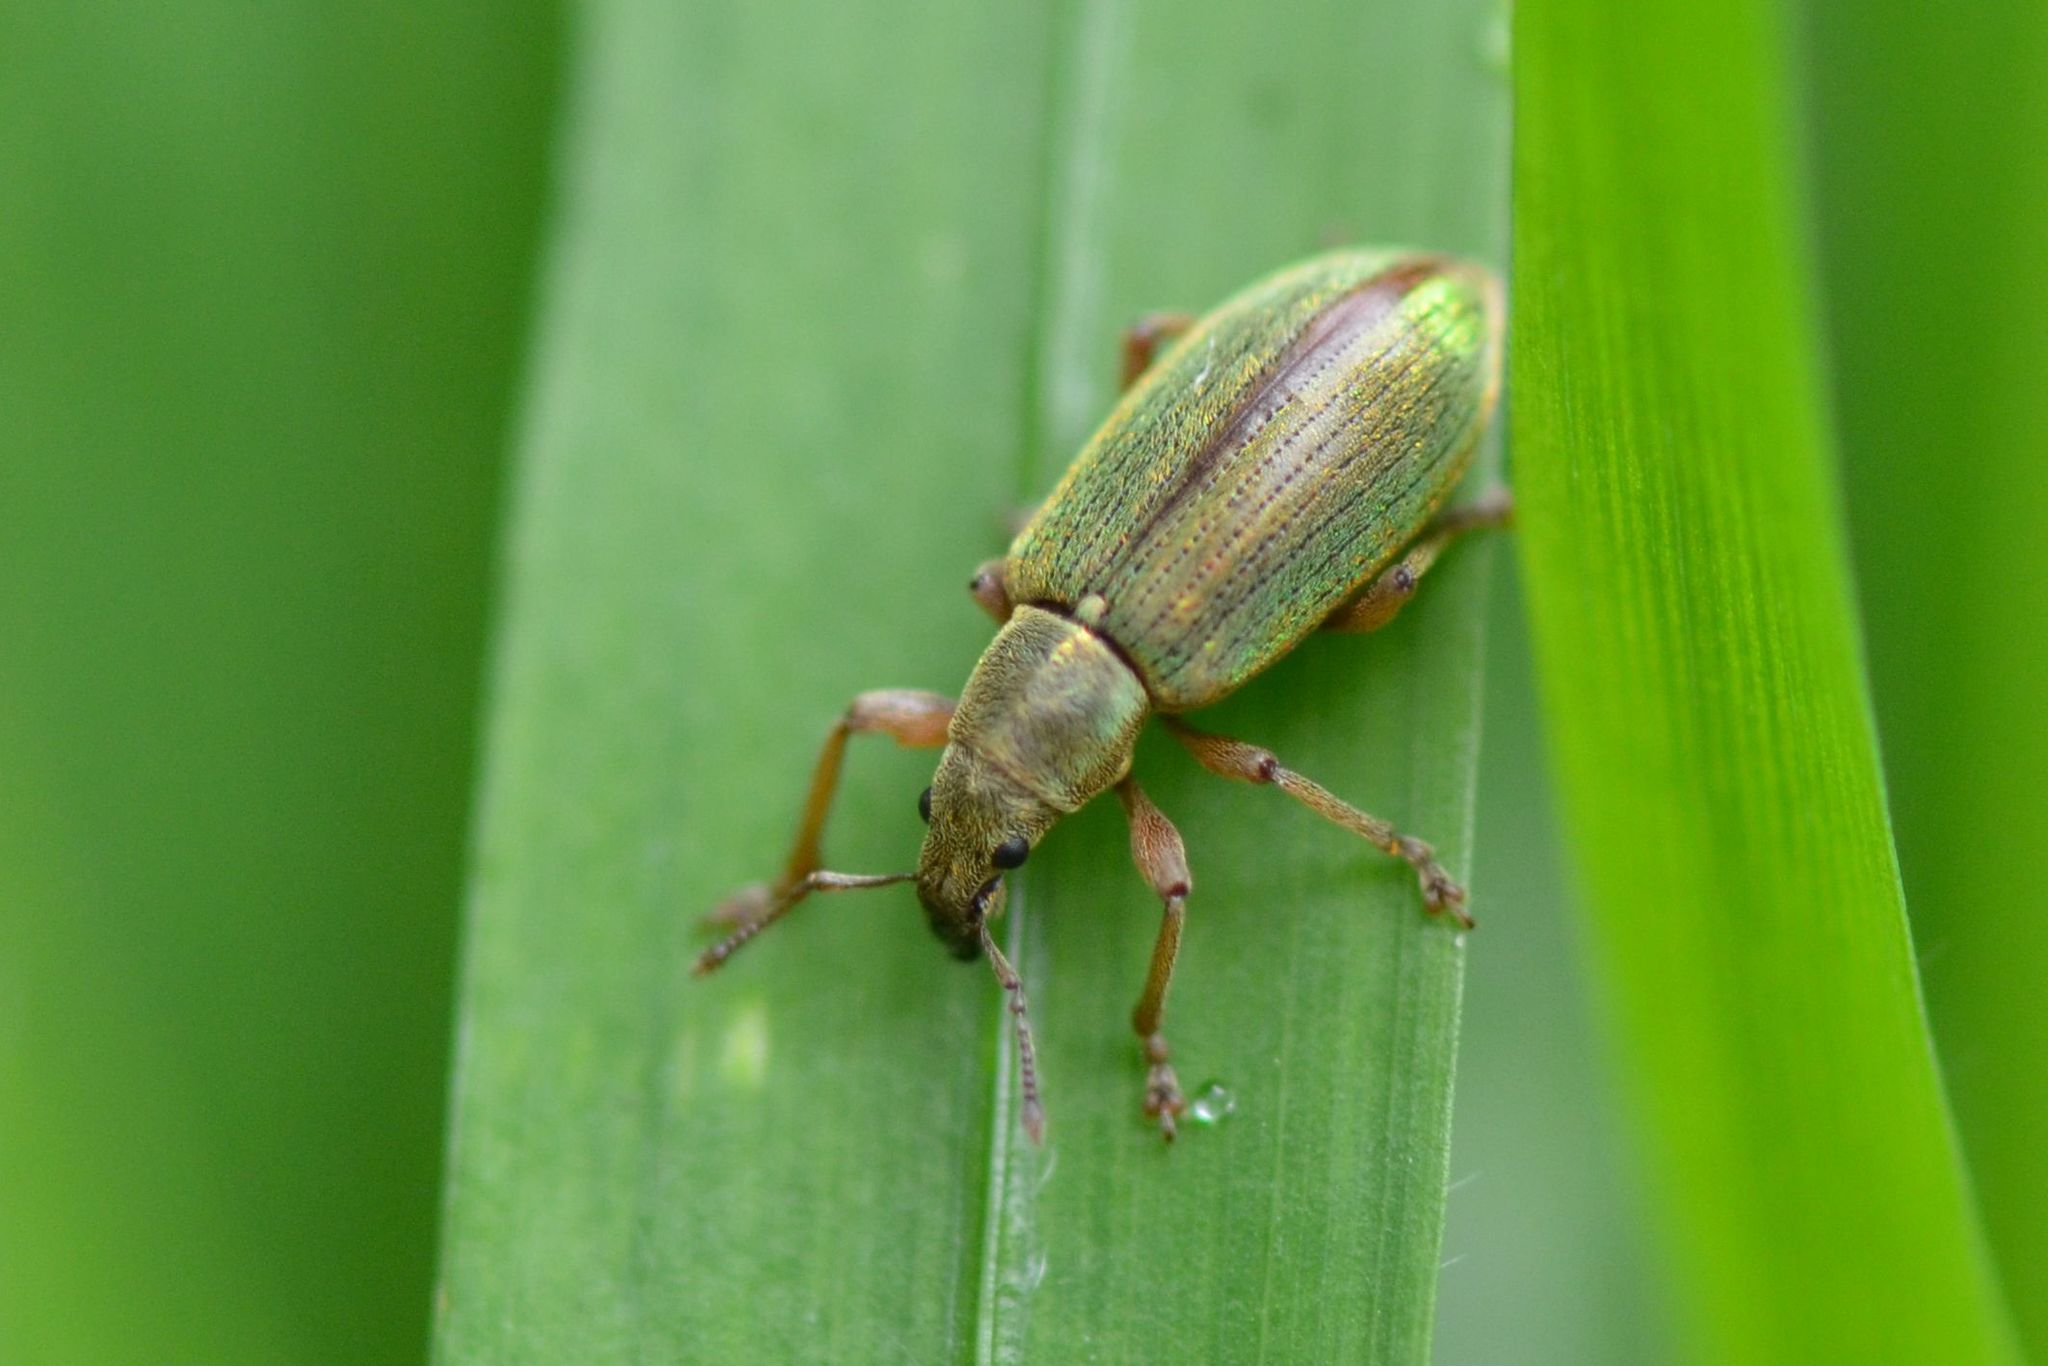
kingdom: Animalia
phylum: Arthropoda
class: Insecta
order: Coleoptera
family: Curculionidae
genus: Polydrusus
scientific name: Polydrusus viridinitens
